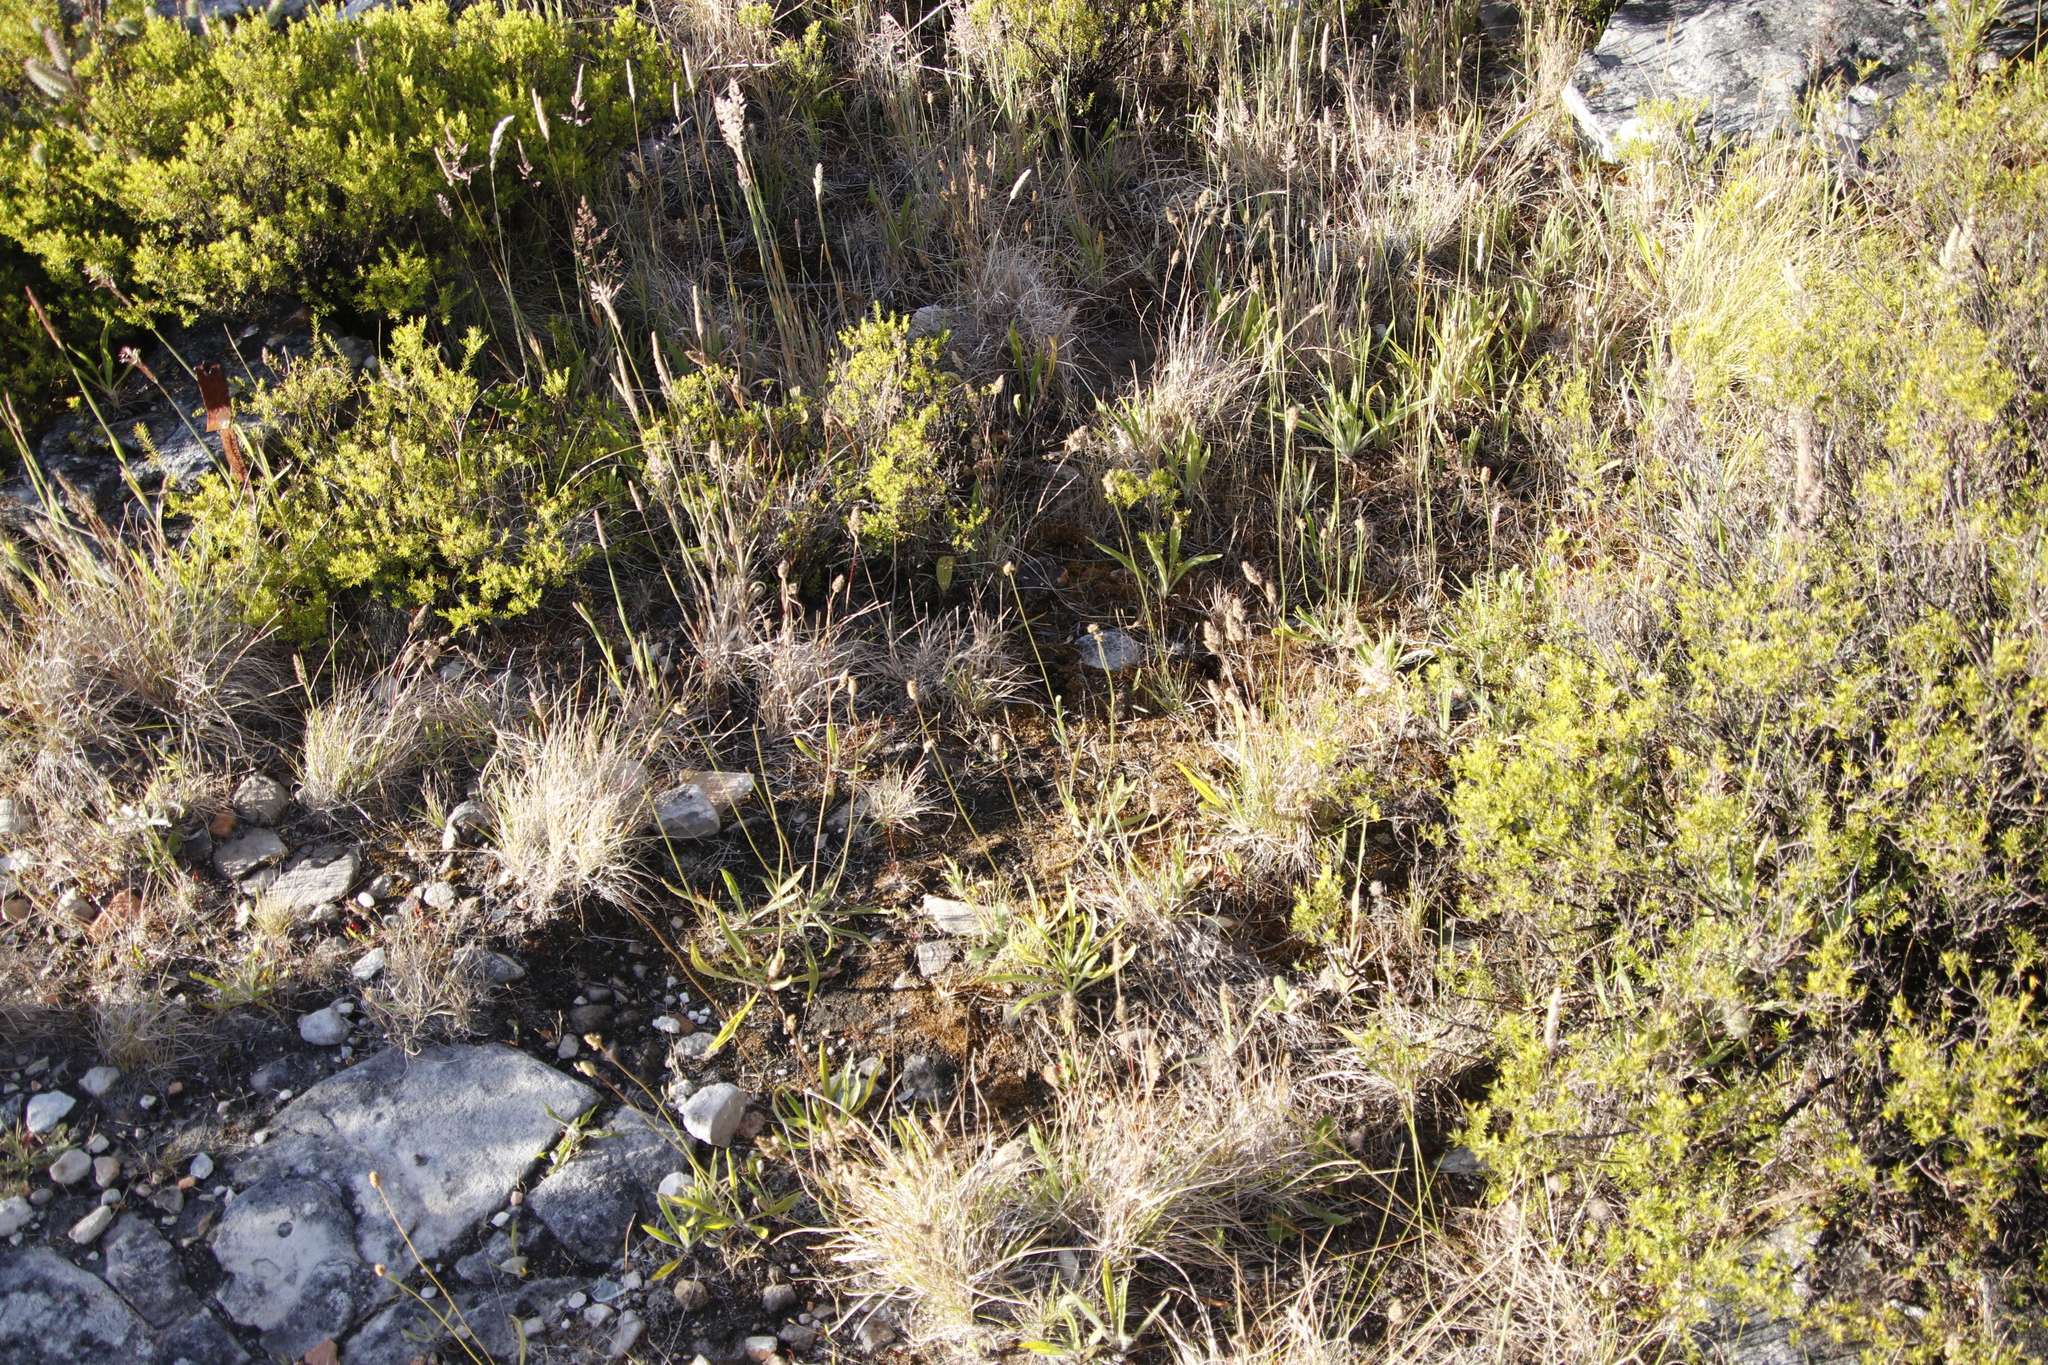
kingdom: Plantae
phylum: Tracheophyta
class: Magnoliopsida
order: Lamiales
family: Plantaginaceae
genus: Plantago
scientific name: Plantago lanceolata
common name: Ribwort plantain
